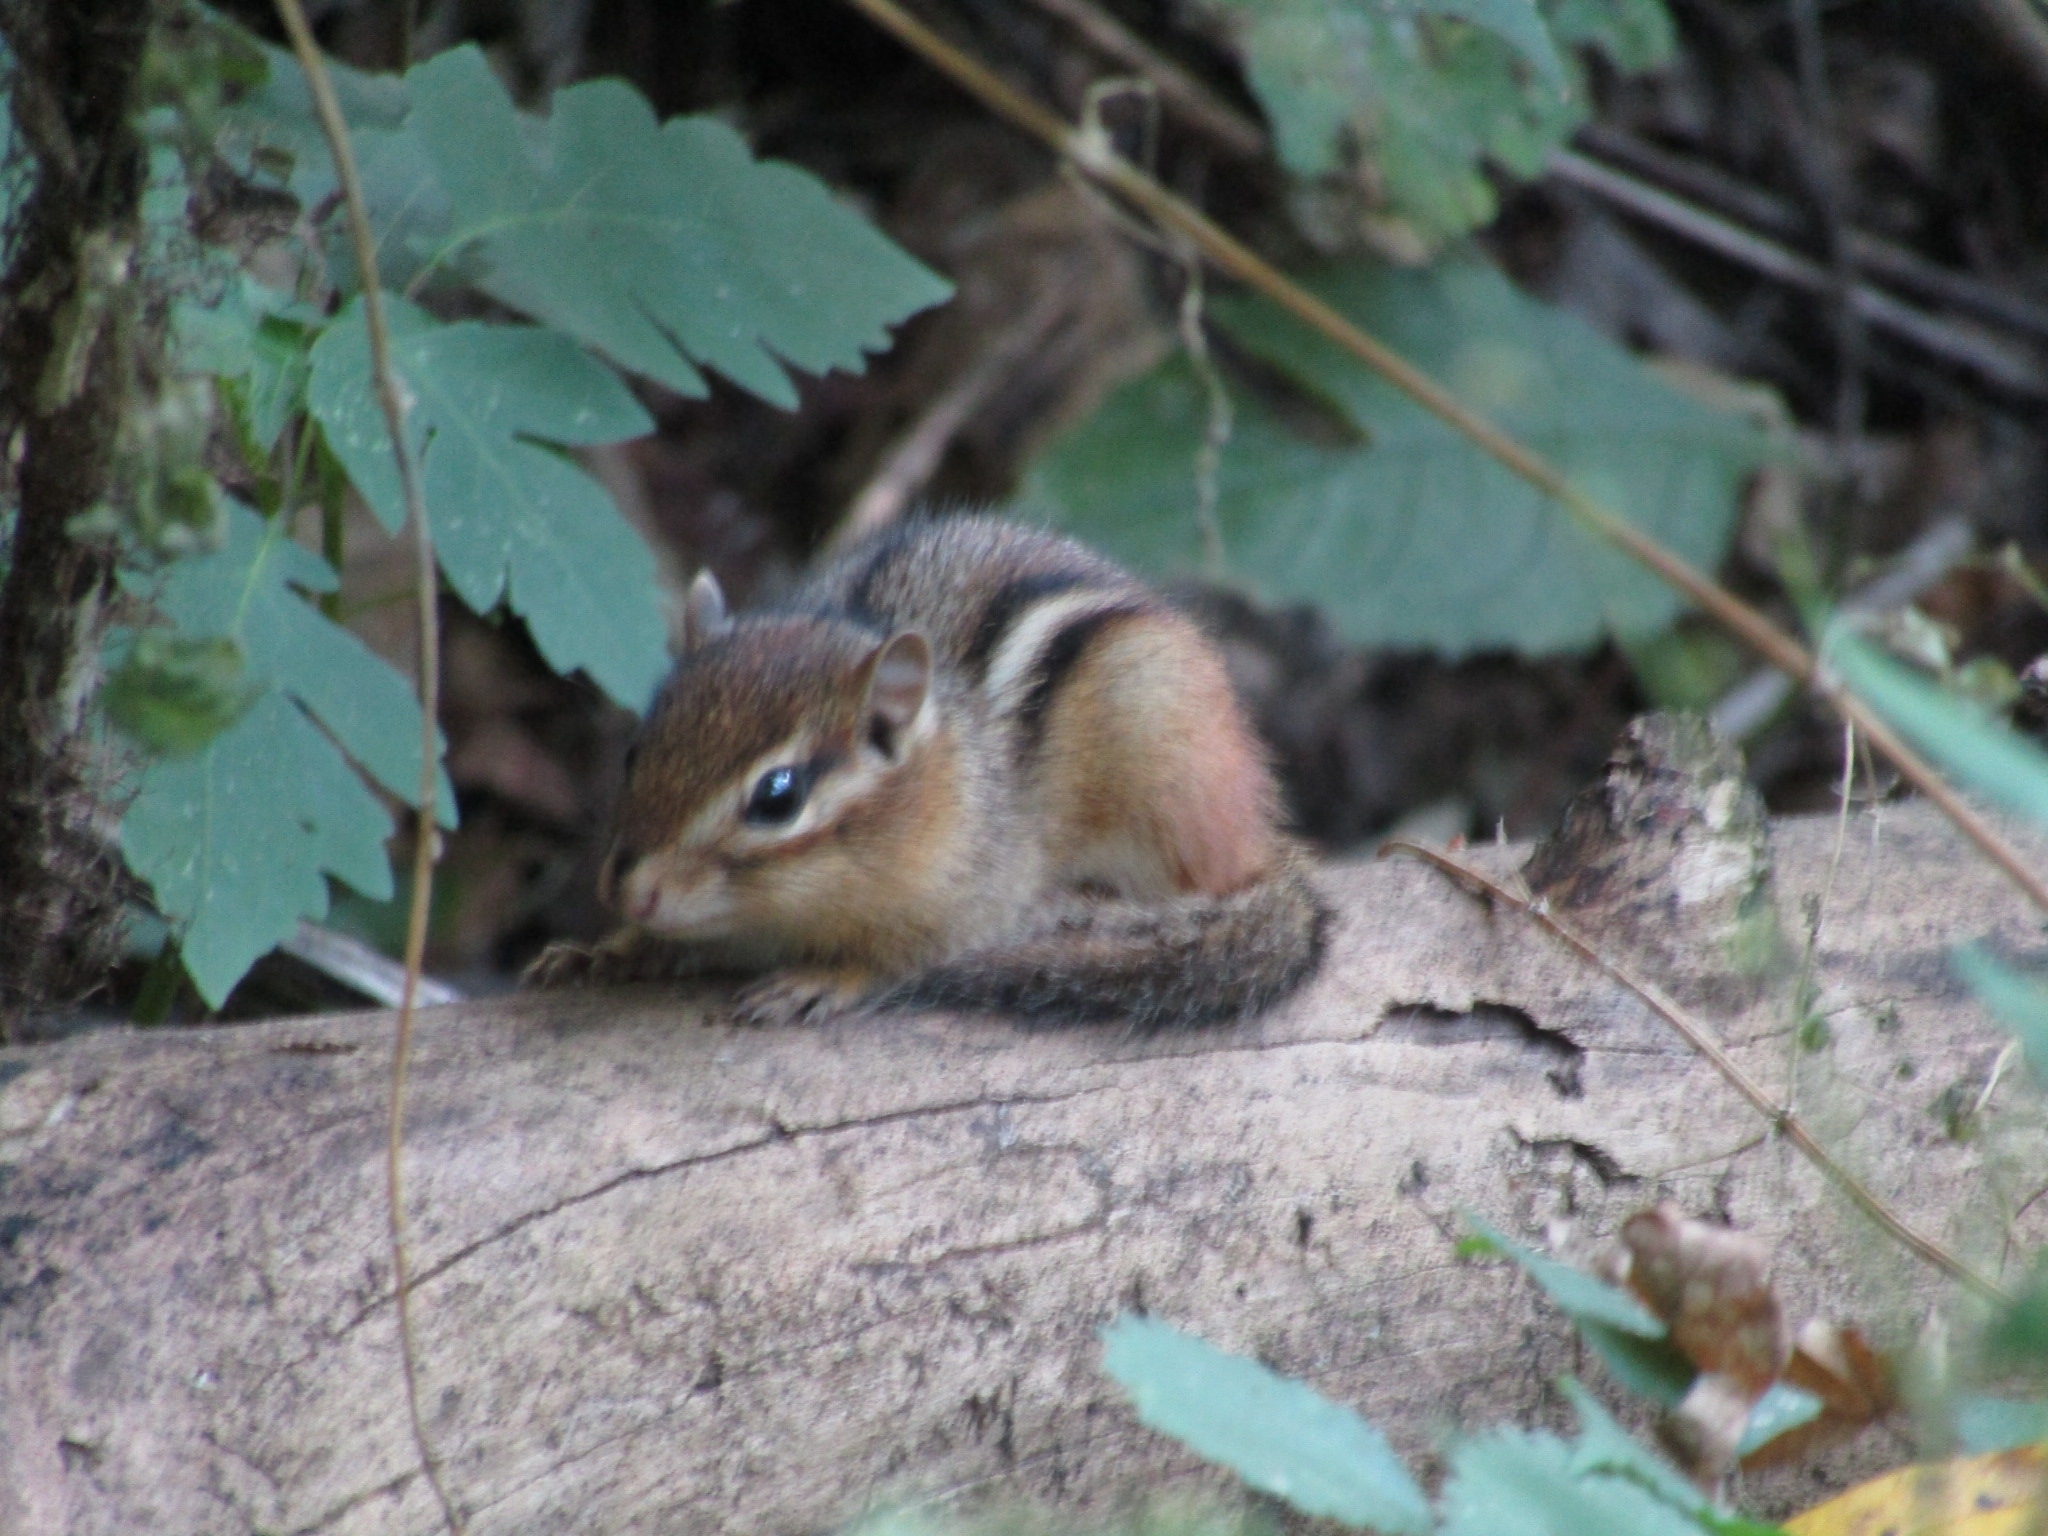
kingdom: Animalia
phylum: Chordata
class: Mammalia
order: Rodentia
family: Sciuridae
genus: Tamias
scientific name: Tamias striatus
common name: Eastern chipmunk
